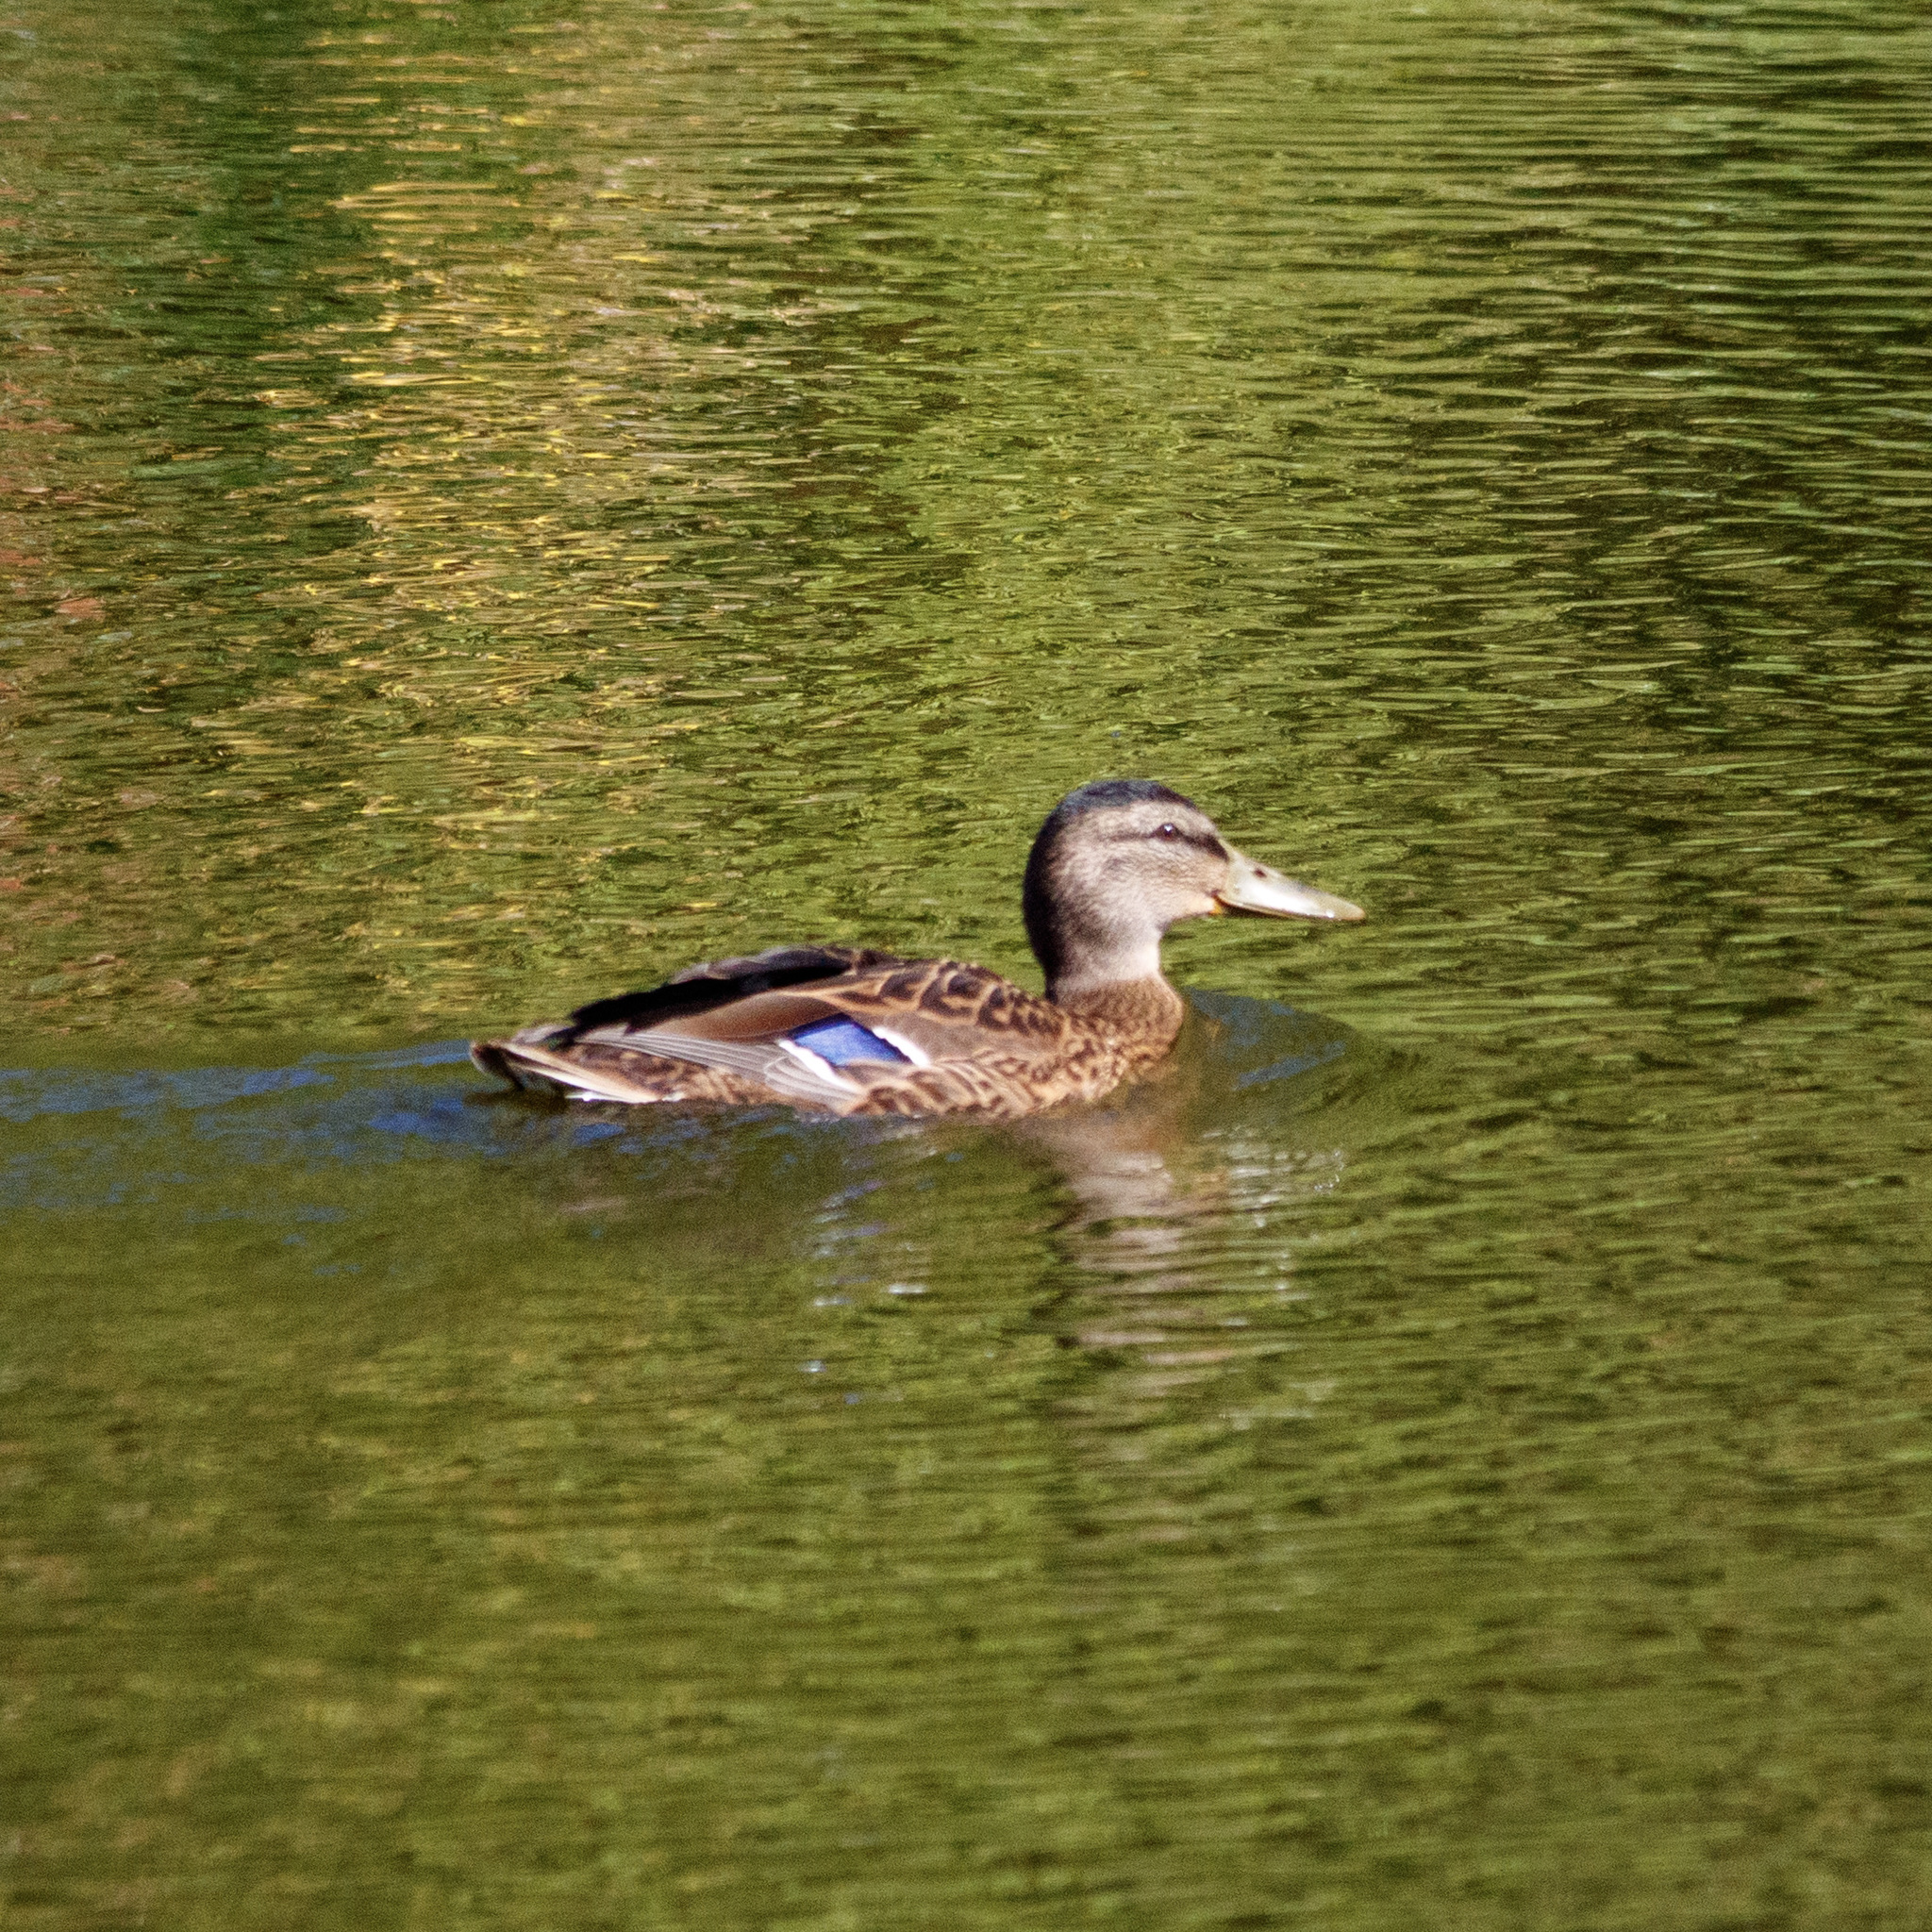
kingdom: Animalia
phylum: Chordata
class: Aves
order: Anseriformes
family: Anatidae
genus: Anas
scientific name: Anas platyrhynchos
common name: Mallard
